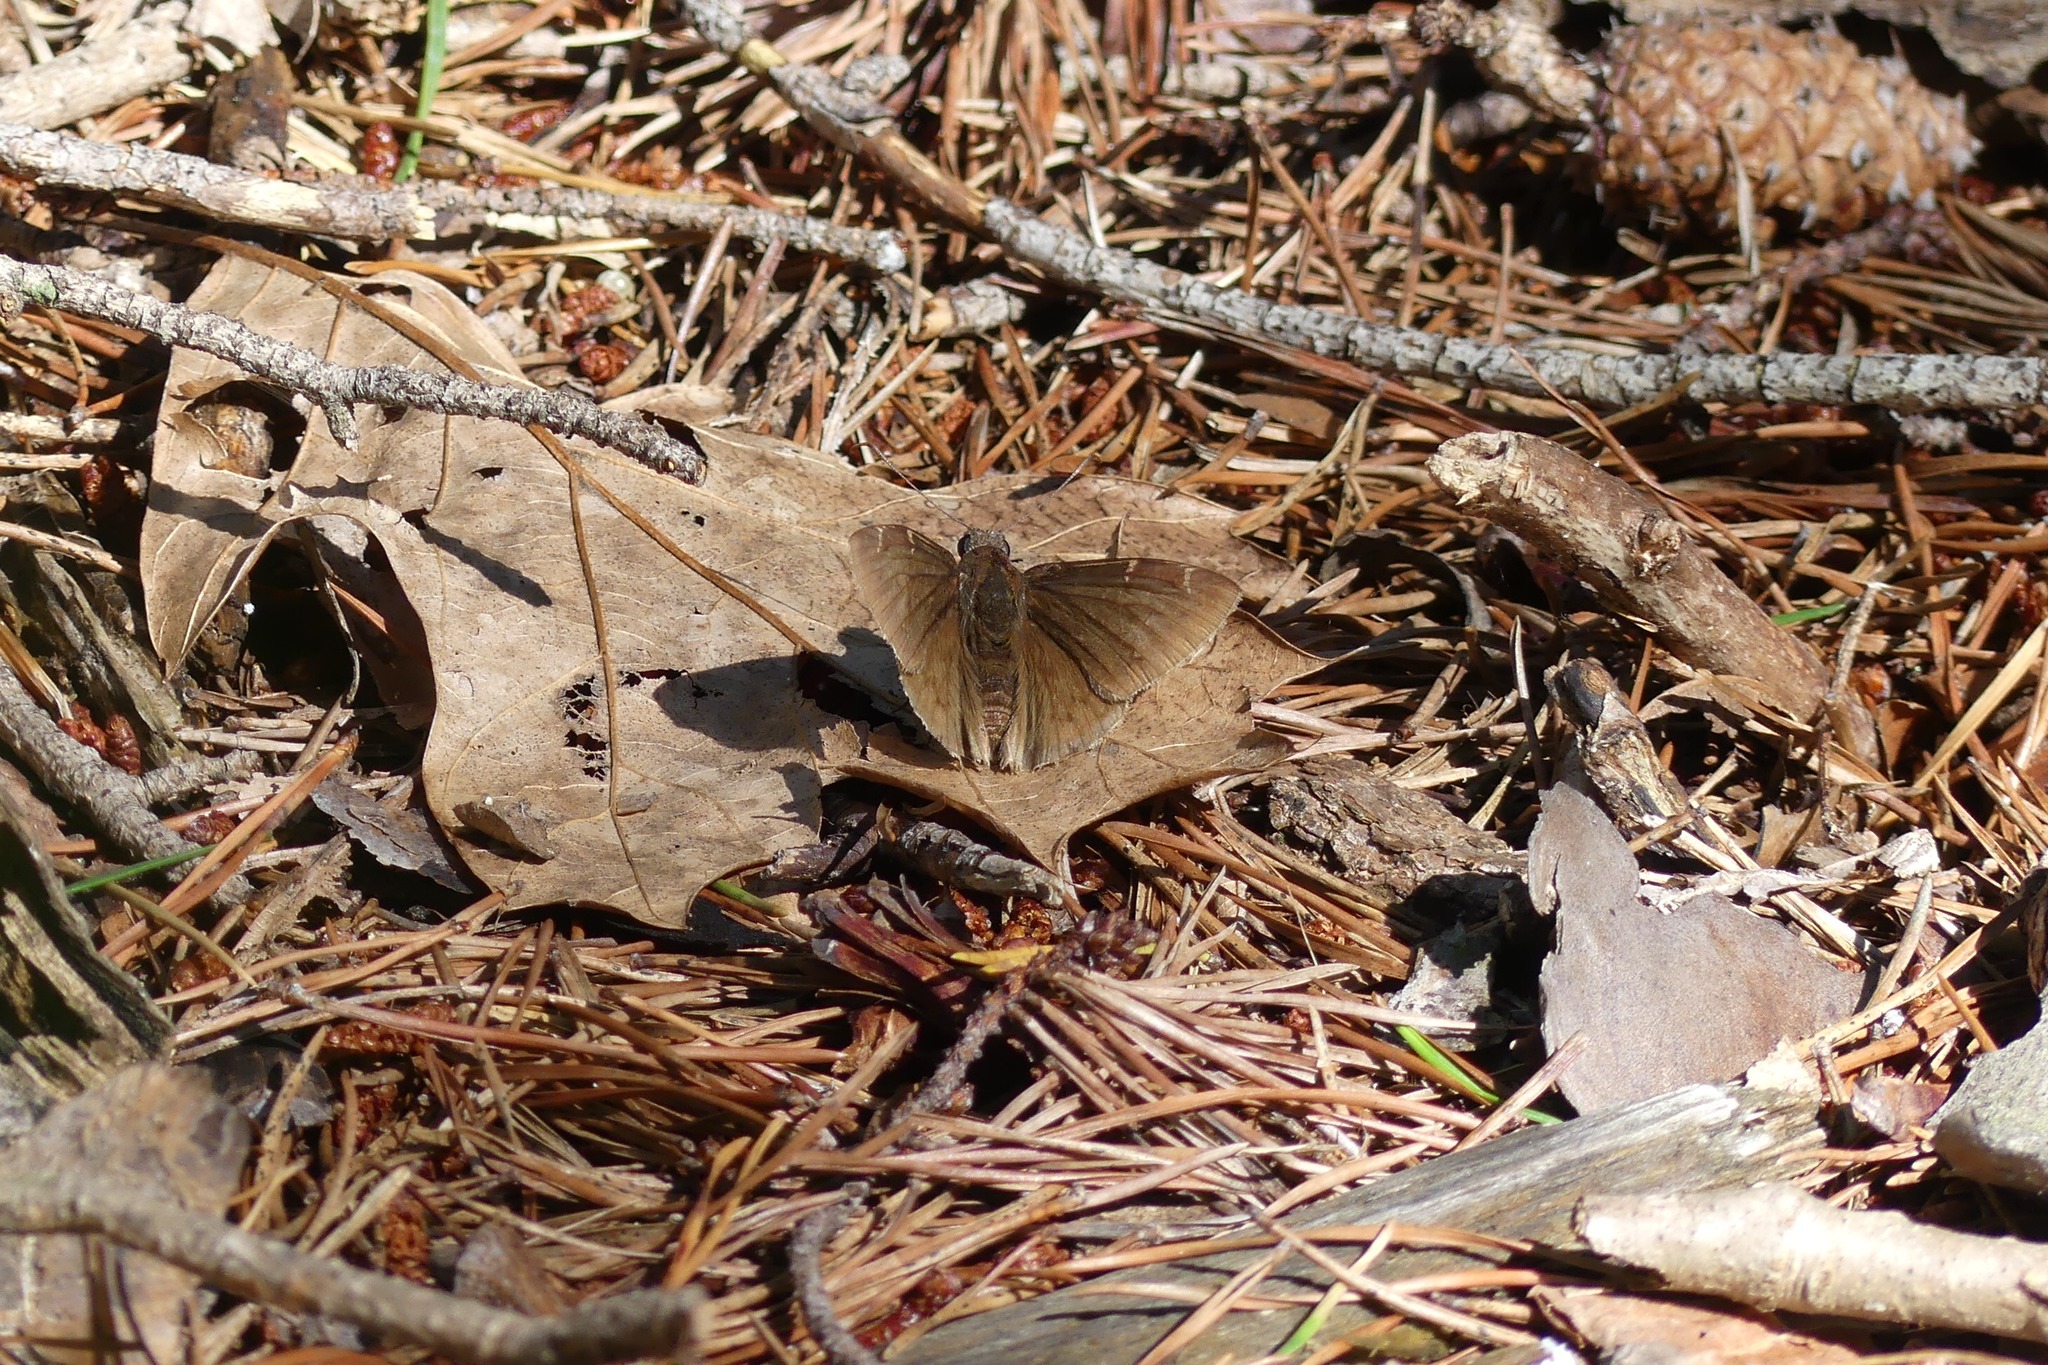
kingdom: Animalia
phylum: Arthropoda
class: Insecta
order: Lepidoptera
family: Hesperiidae
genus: Thorybes
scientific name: Thorybes pylades
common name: Northern cloudywing
